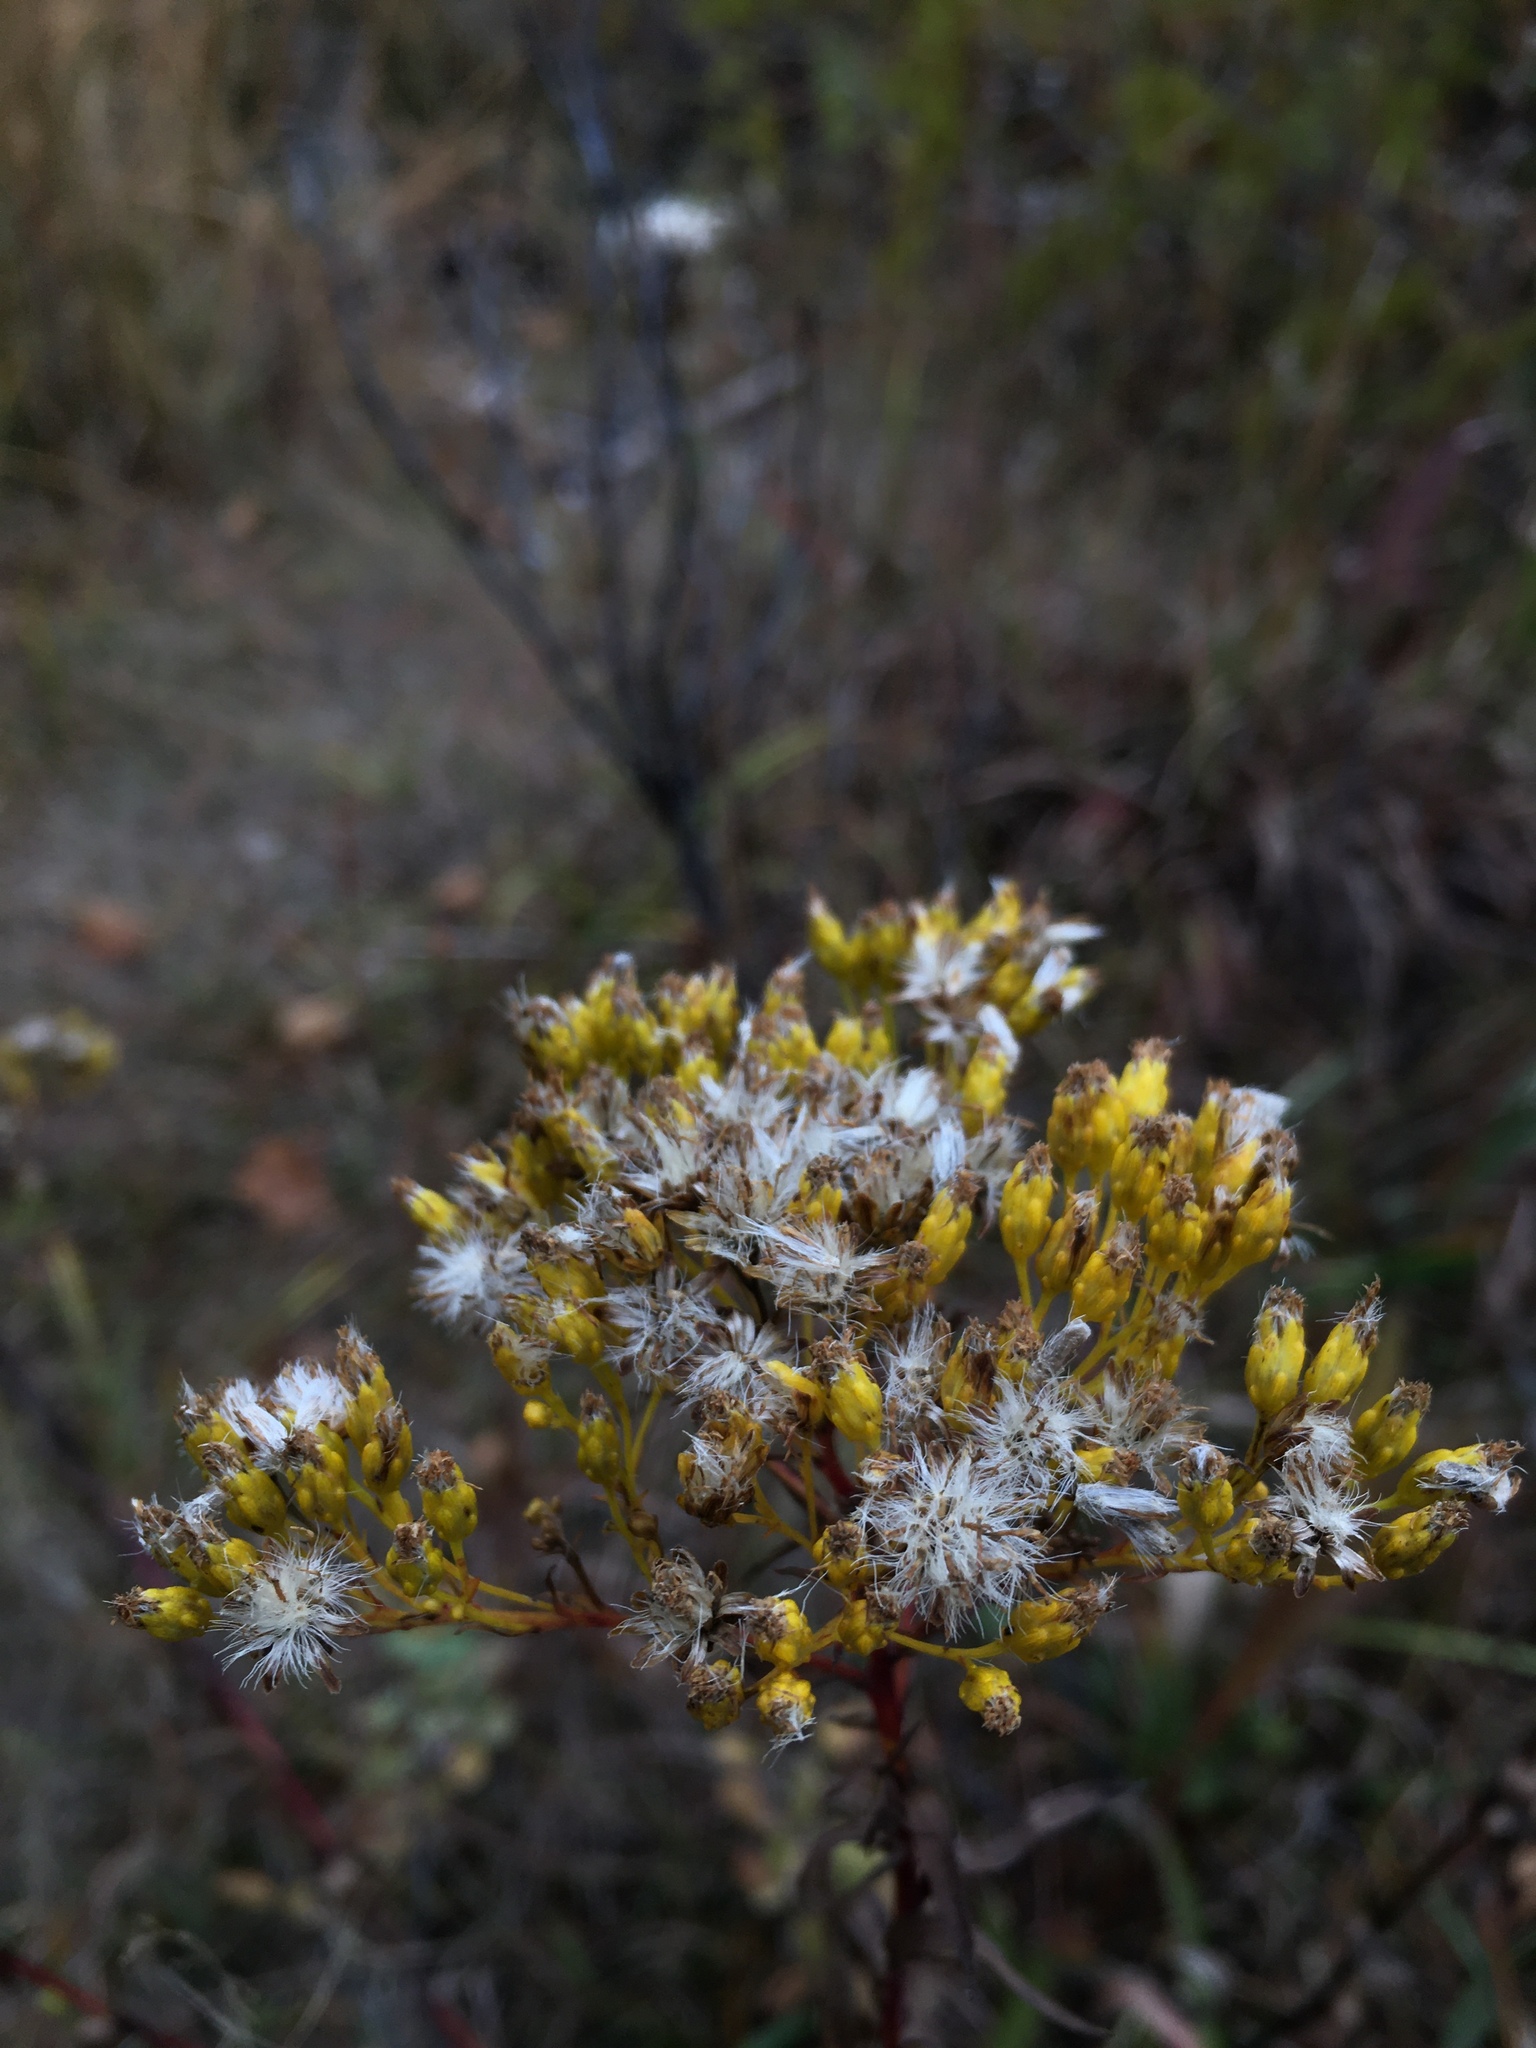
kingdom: Plantae
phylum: Tracheophyta
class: Magnoliopsida
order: Asterales
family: Asteraceae
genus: Solidago
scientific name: Solidago ohioensis
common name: Ohio goldenrod
